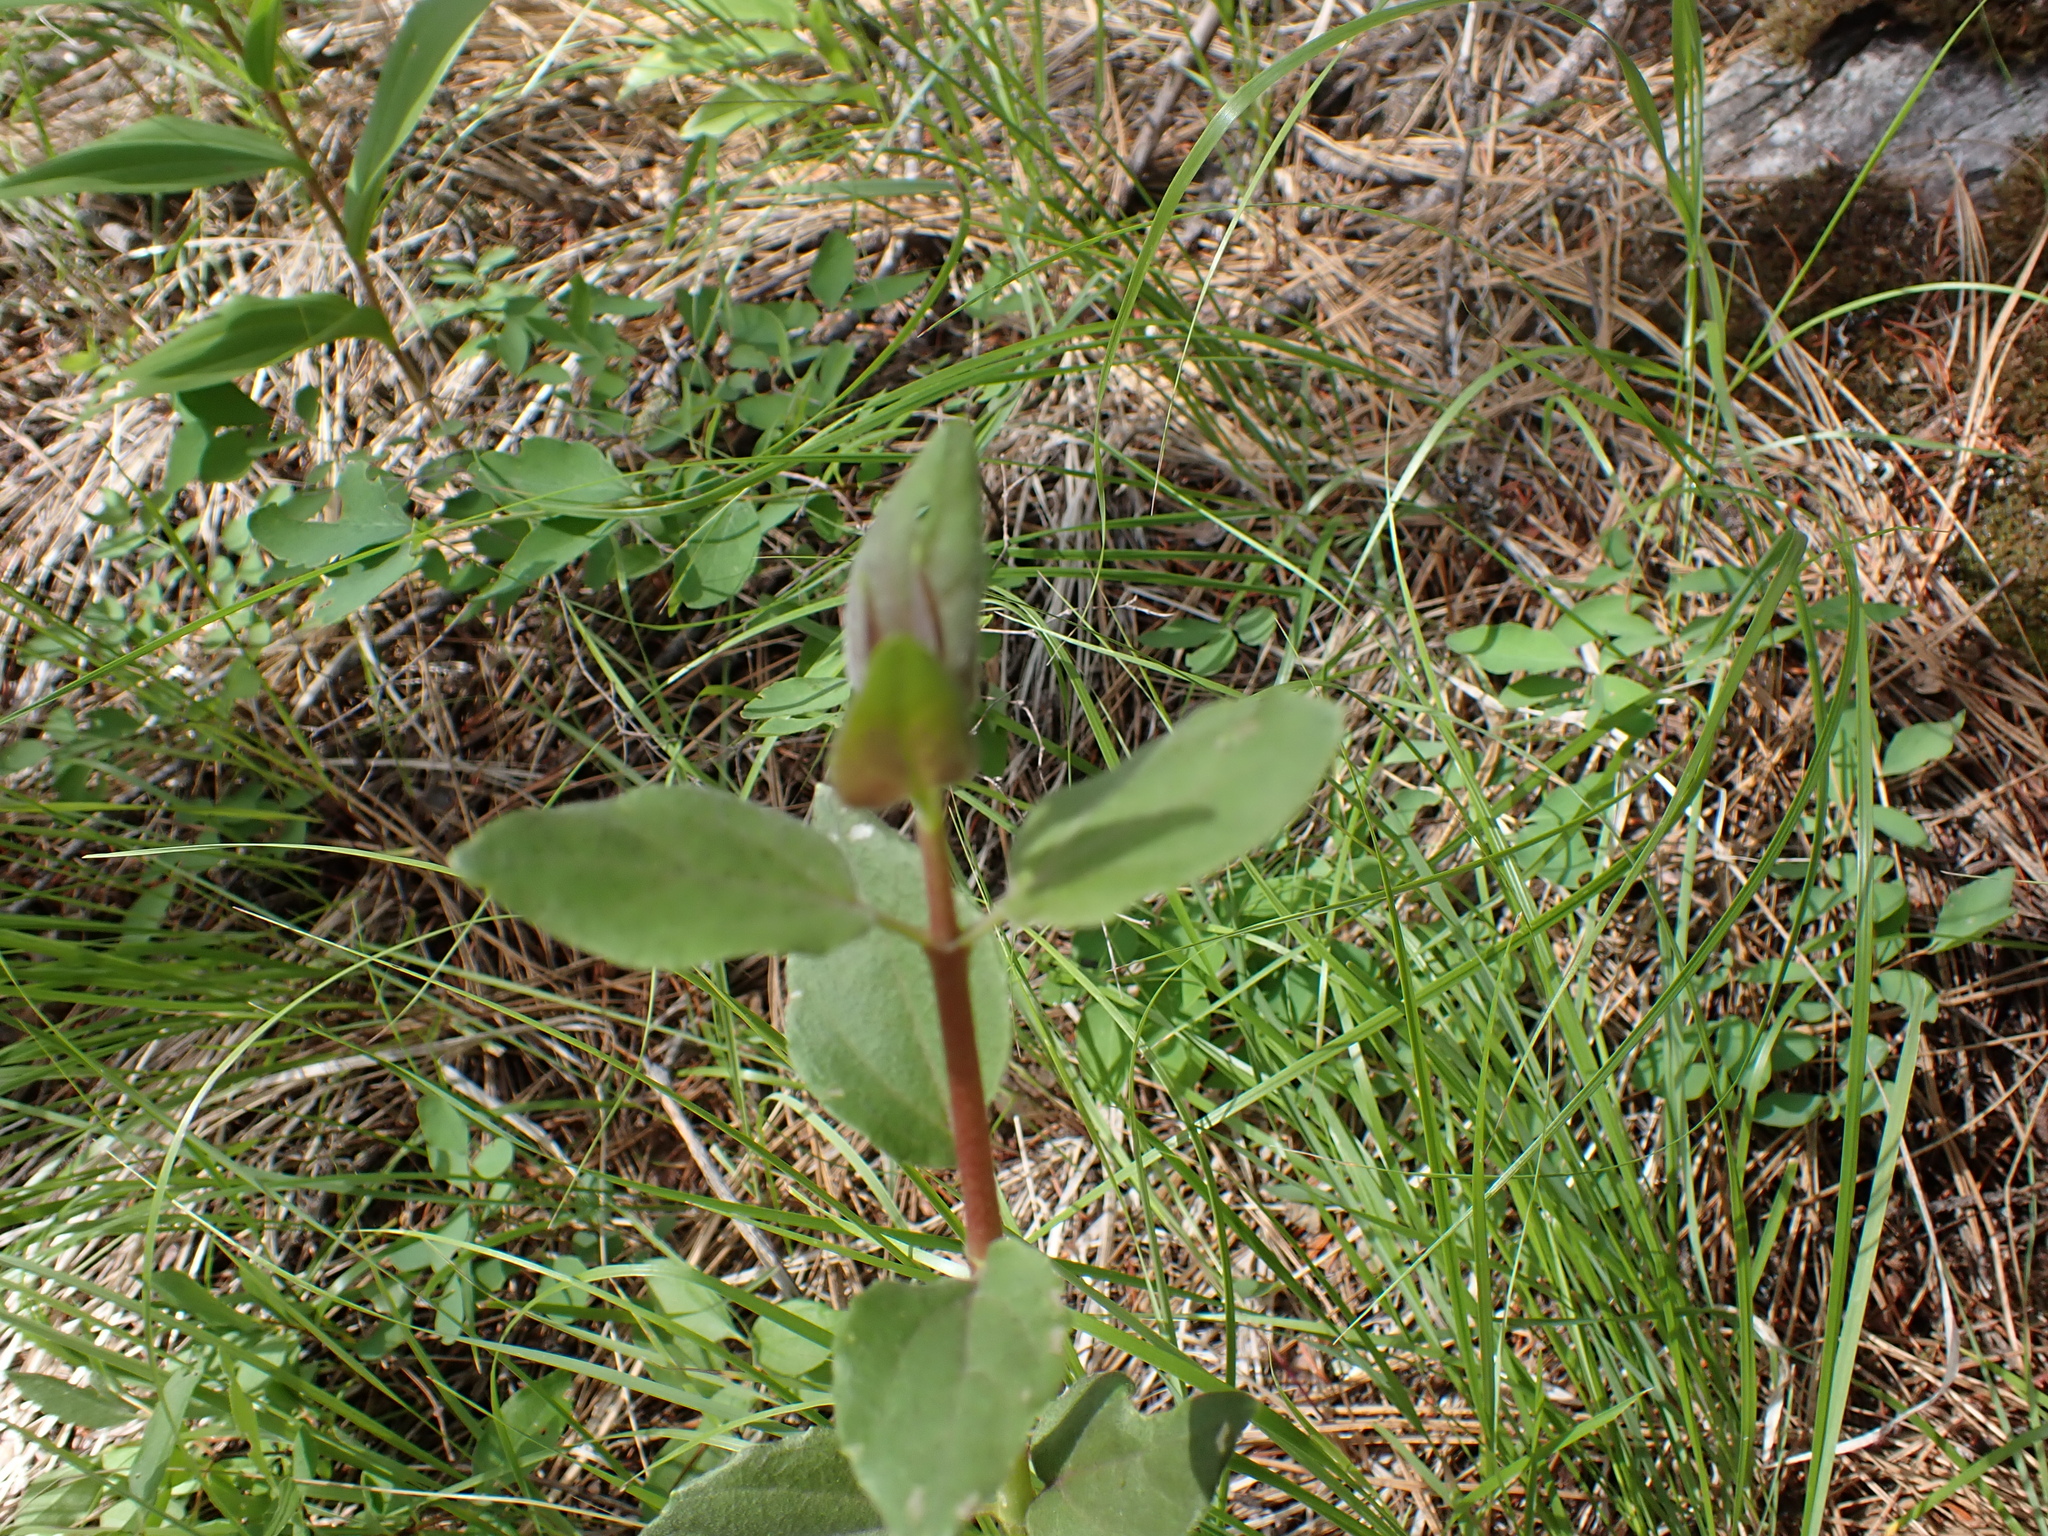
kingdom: Plantae
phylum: Tracheophyta
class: Magnoliopsida
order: Rosales
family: Elaeagnaceae
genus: Shepherdia
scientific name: Shepherdia canadensis
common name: Soapberry
